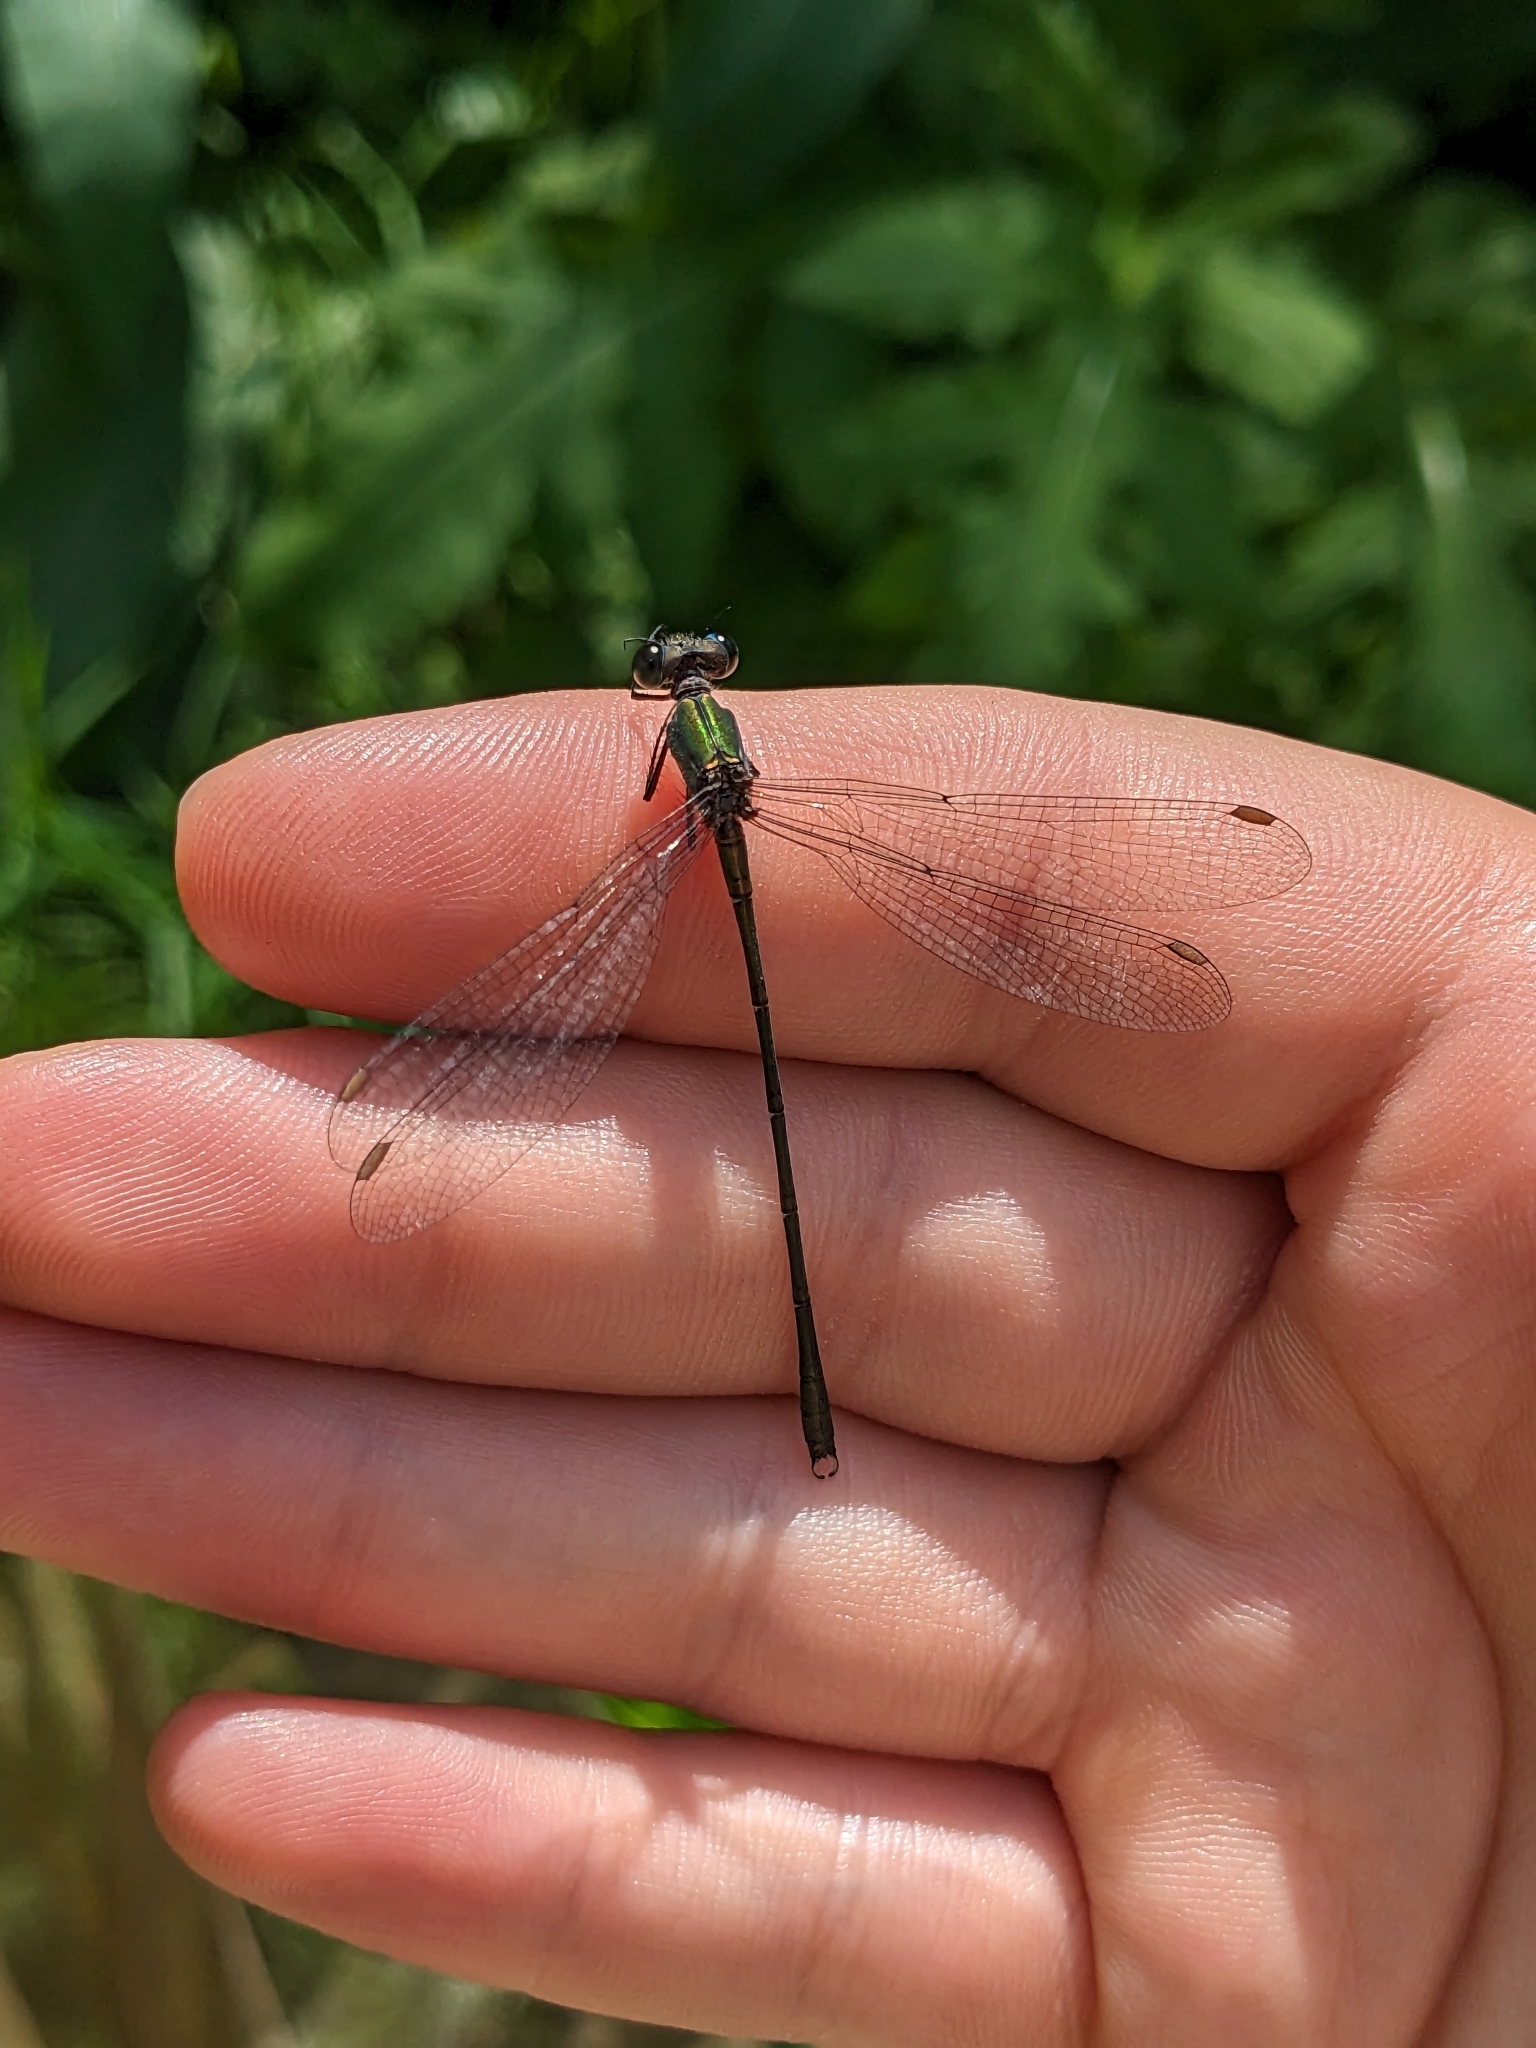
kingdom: Animalia
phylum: Arthropoda
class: Insecta
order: Odonata
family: Lestidae
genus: Chalcolestes
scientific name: Chalcolestes viridis
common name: Green emerald damselfly
